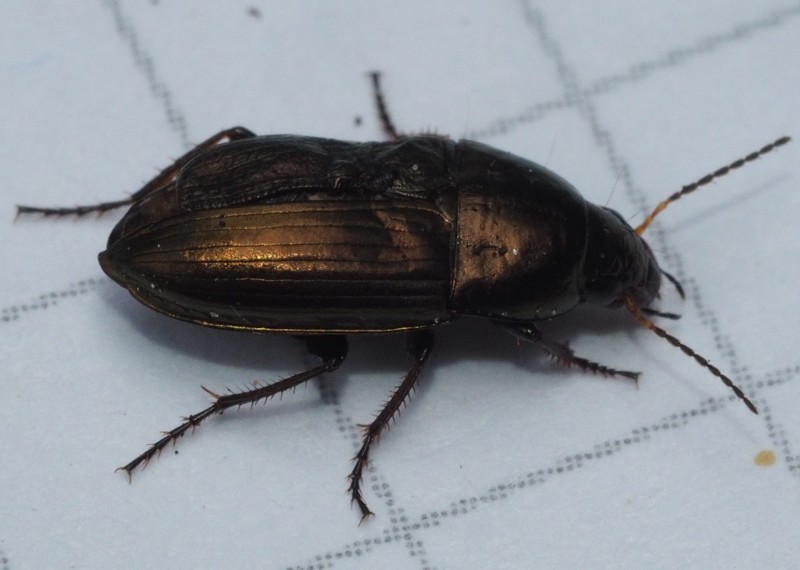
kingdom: Animalia
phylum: Arthropoda
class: Insecta
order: Coleoptera
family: Carabidae
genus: Amara
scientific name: Amara aenea
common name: Common sun beetle
